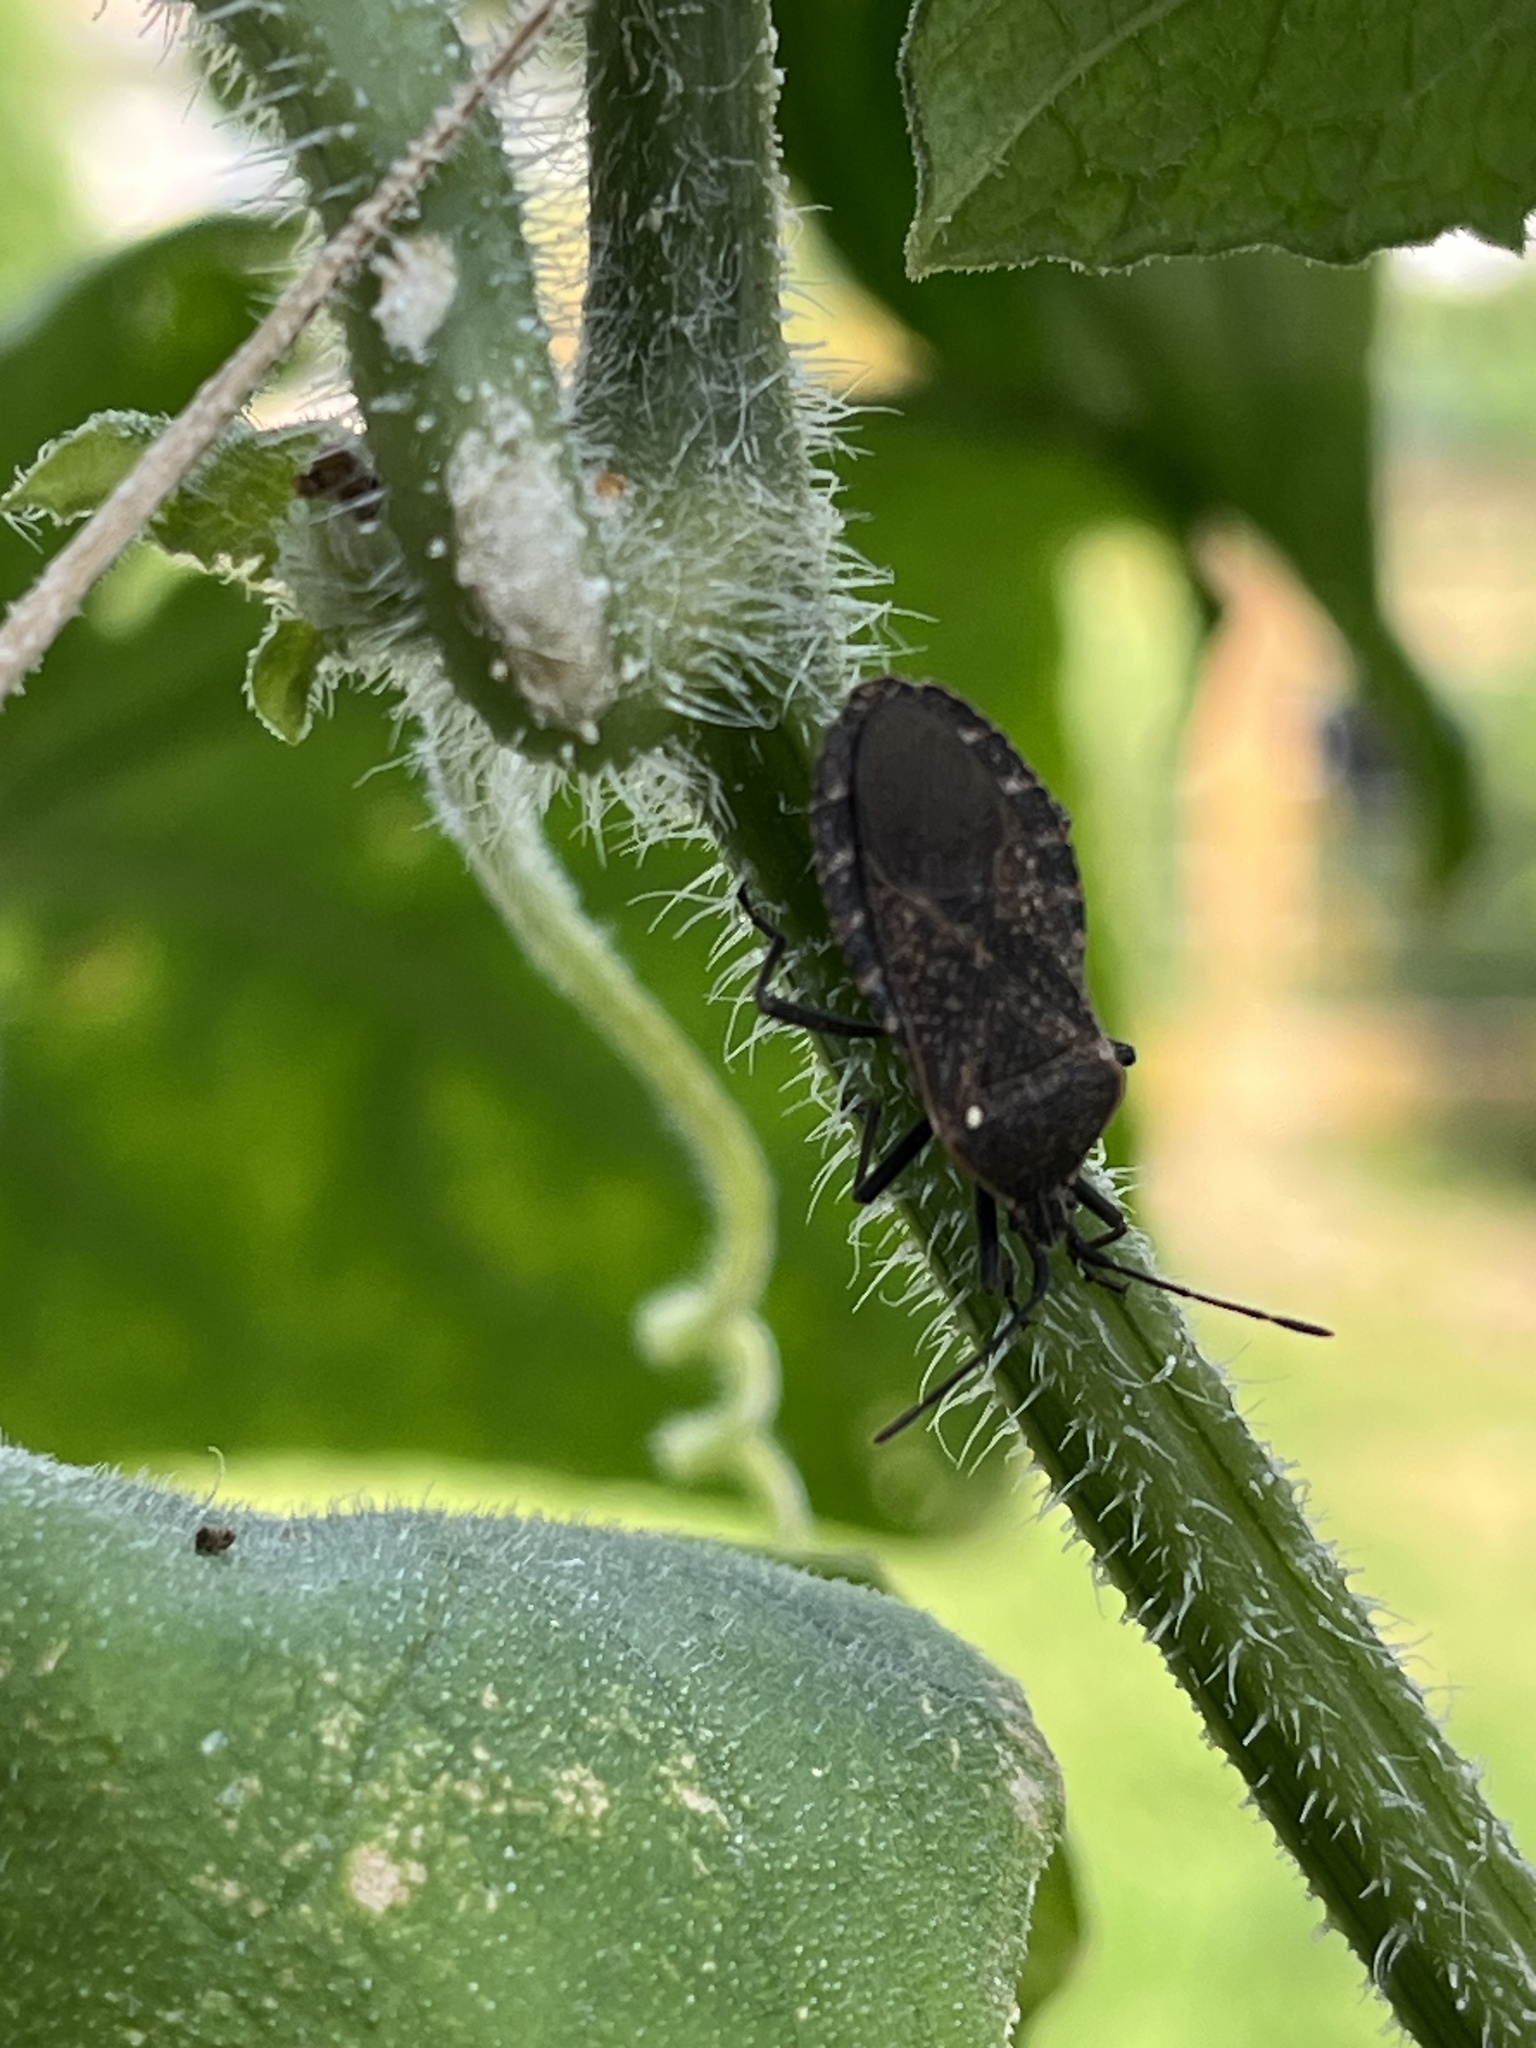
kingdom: Animalia
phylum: Arthropoda
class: Insecta
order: Hemiptera
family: Coreidae
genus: Anasa
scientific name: Anasa tristis
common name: Squash bug
